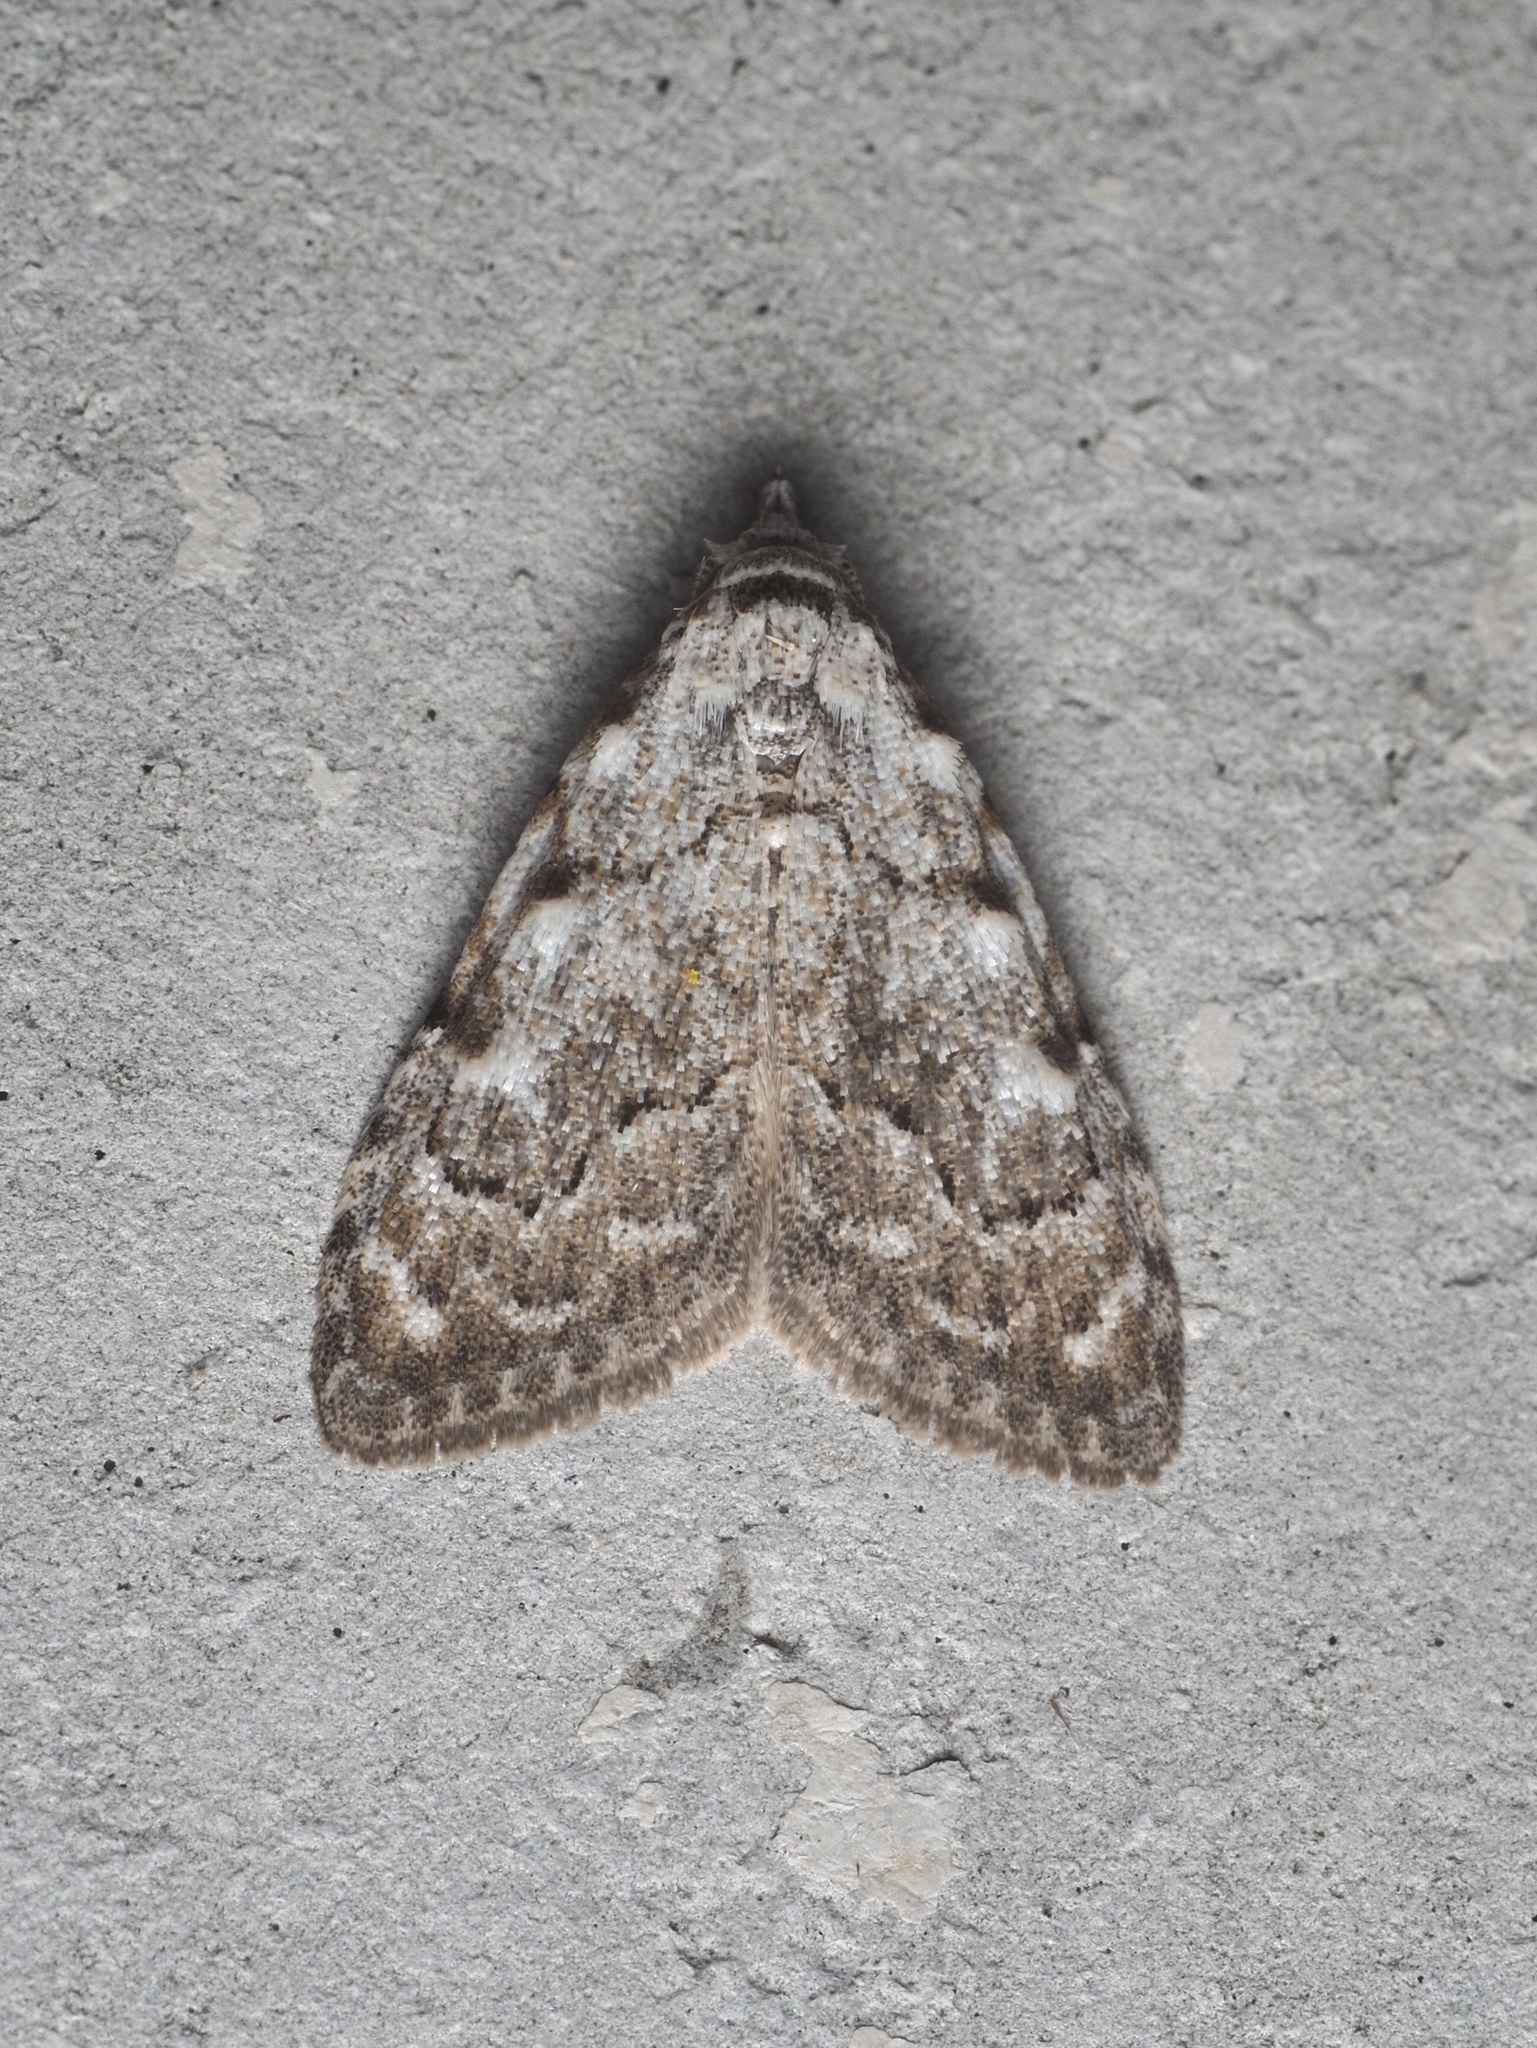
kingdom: Animalia
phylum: Arthropoda
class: Insecta
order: Lepidoptera
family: Nolidae
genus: Nola
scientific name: Nola confusalis
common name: Least black arches
